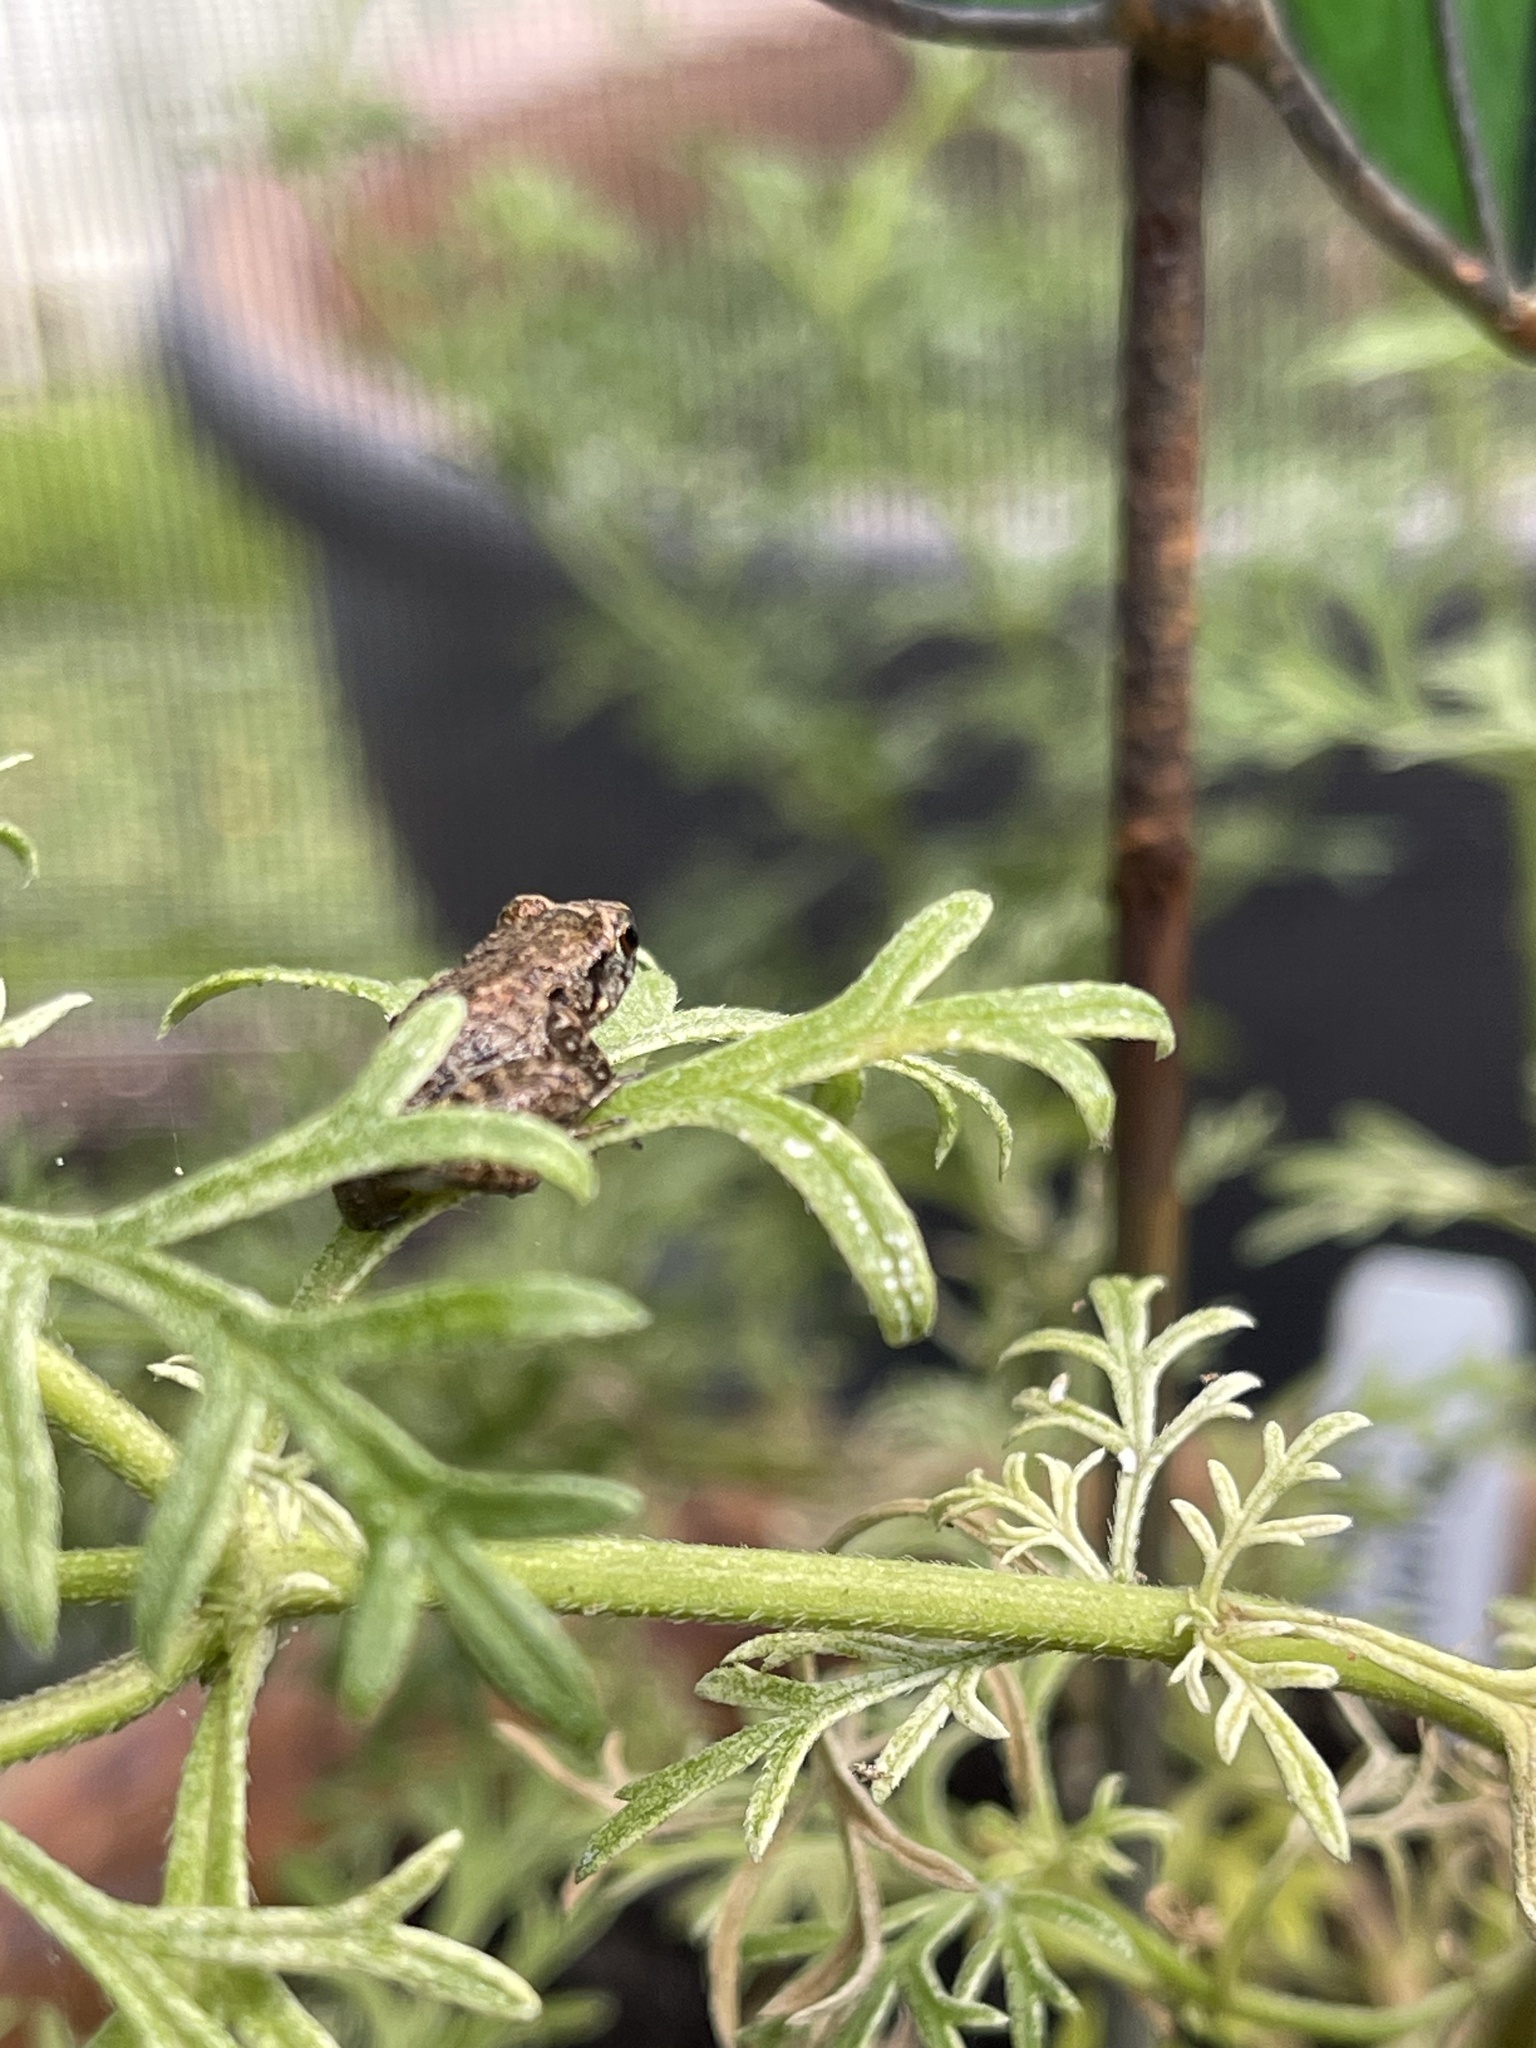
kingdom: Animalia
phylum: Chordata
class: Amphibia
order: Anura
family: Eleutherodactylidae
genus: Eleutherodactylus
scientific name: Eleutherodactylus planirostris
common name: Greenhouse frog
